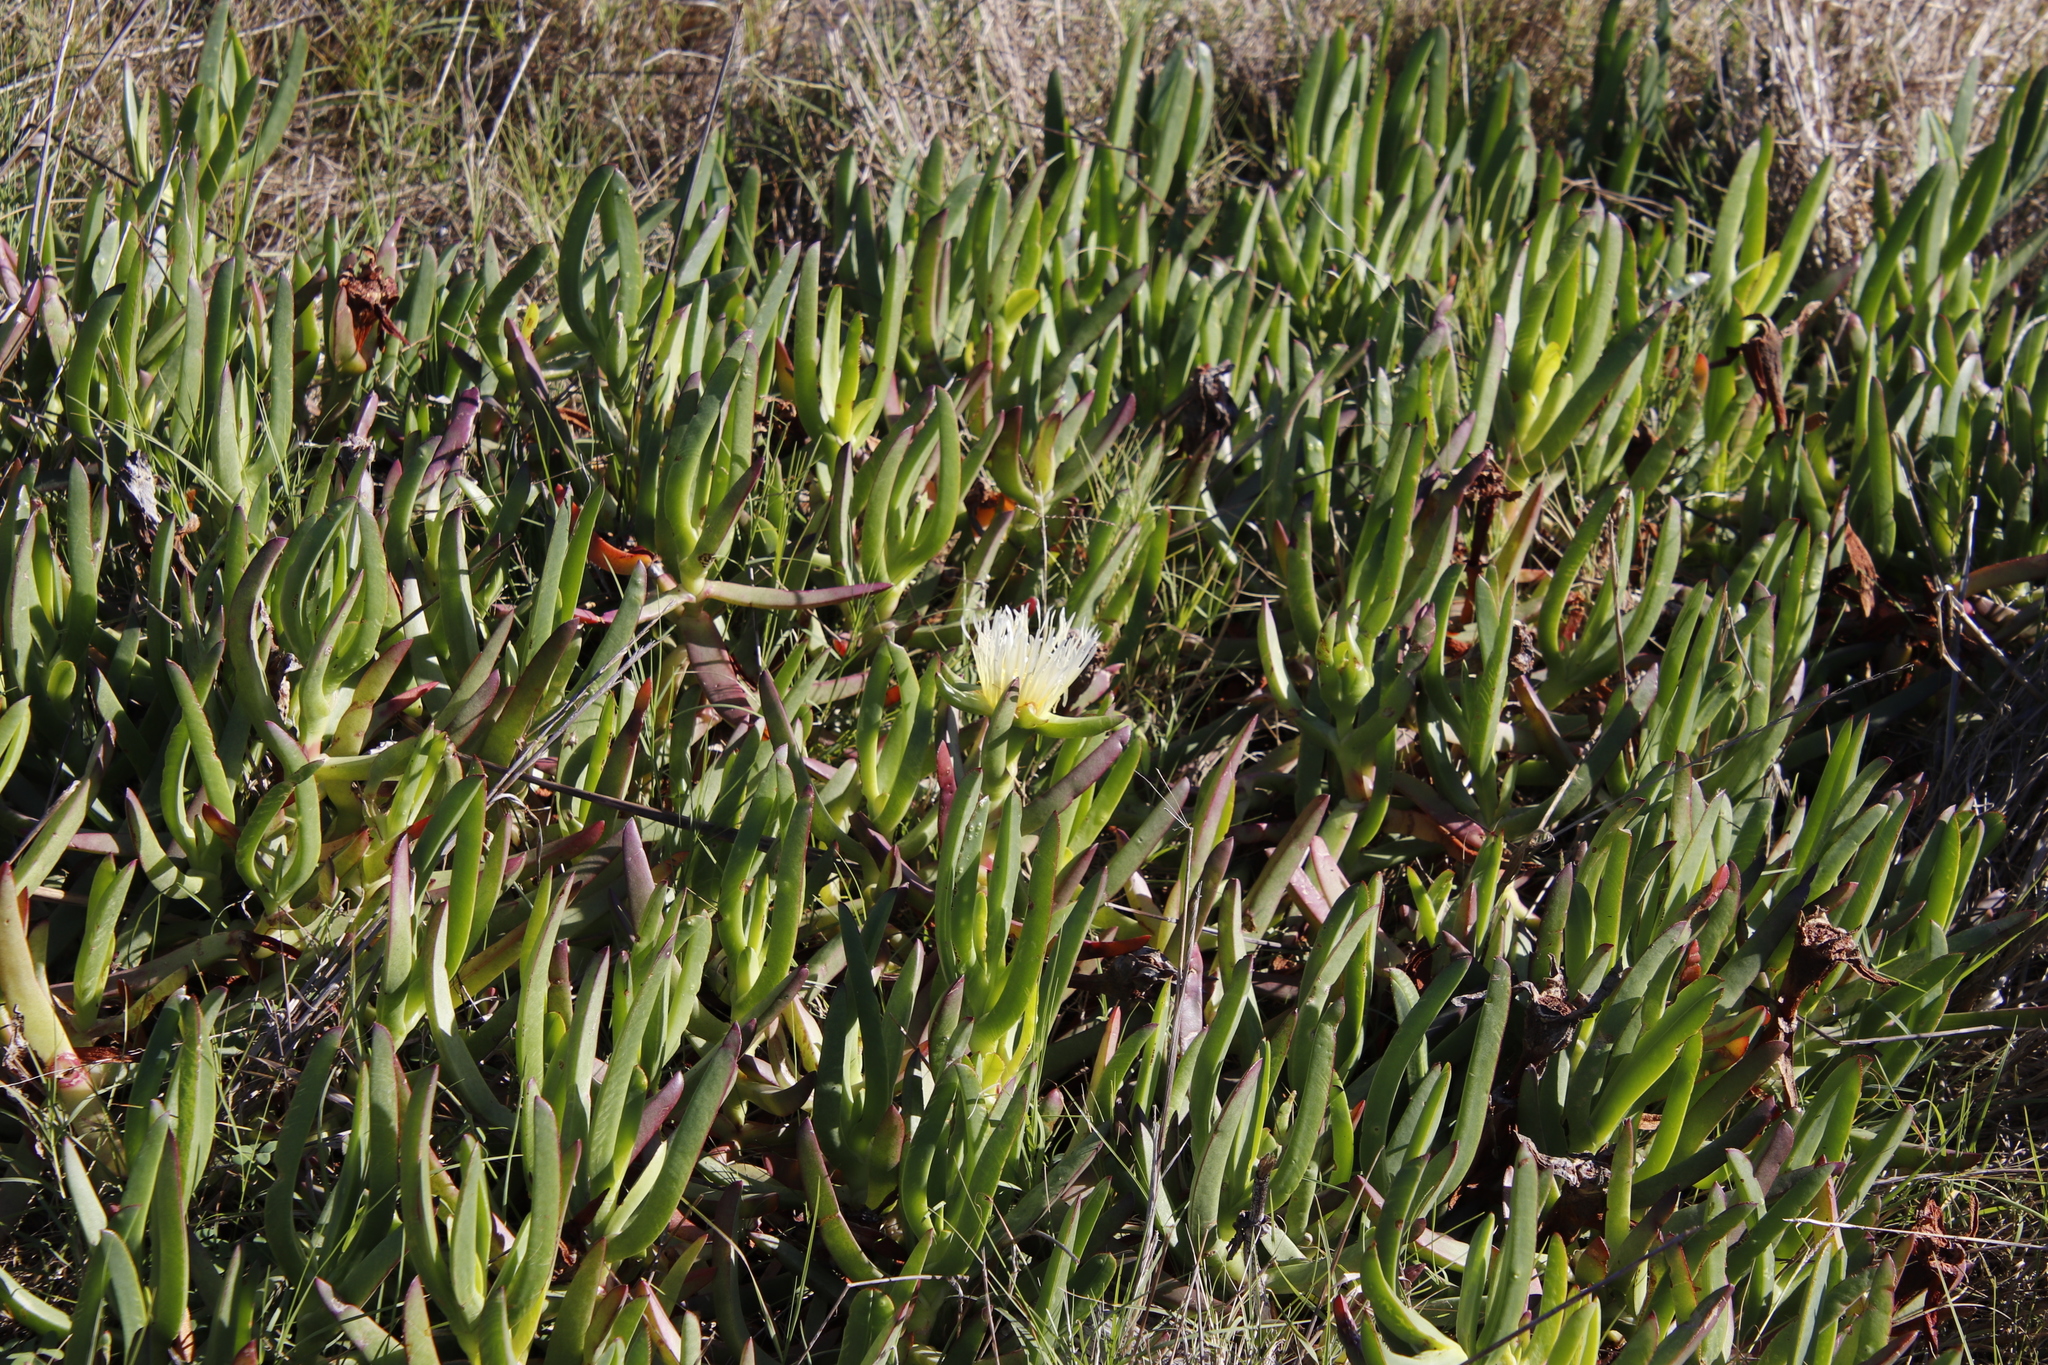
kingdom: Plantae
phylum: Tracheophyta
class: Magnoliopsida
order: Caryophyllales
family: Aizoaceae
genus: Carpobrotus
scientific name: Carpobrotus edulis
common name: Hottentot-fig
